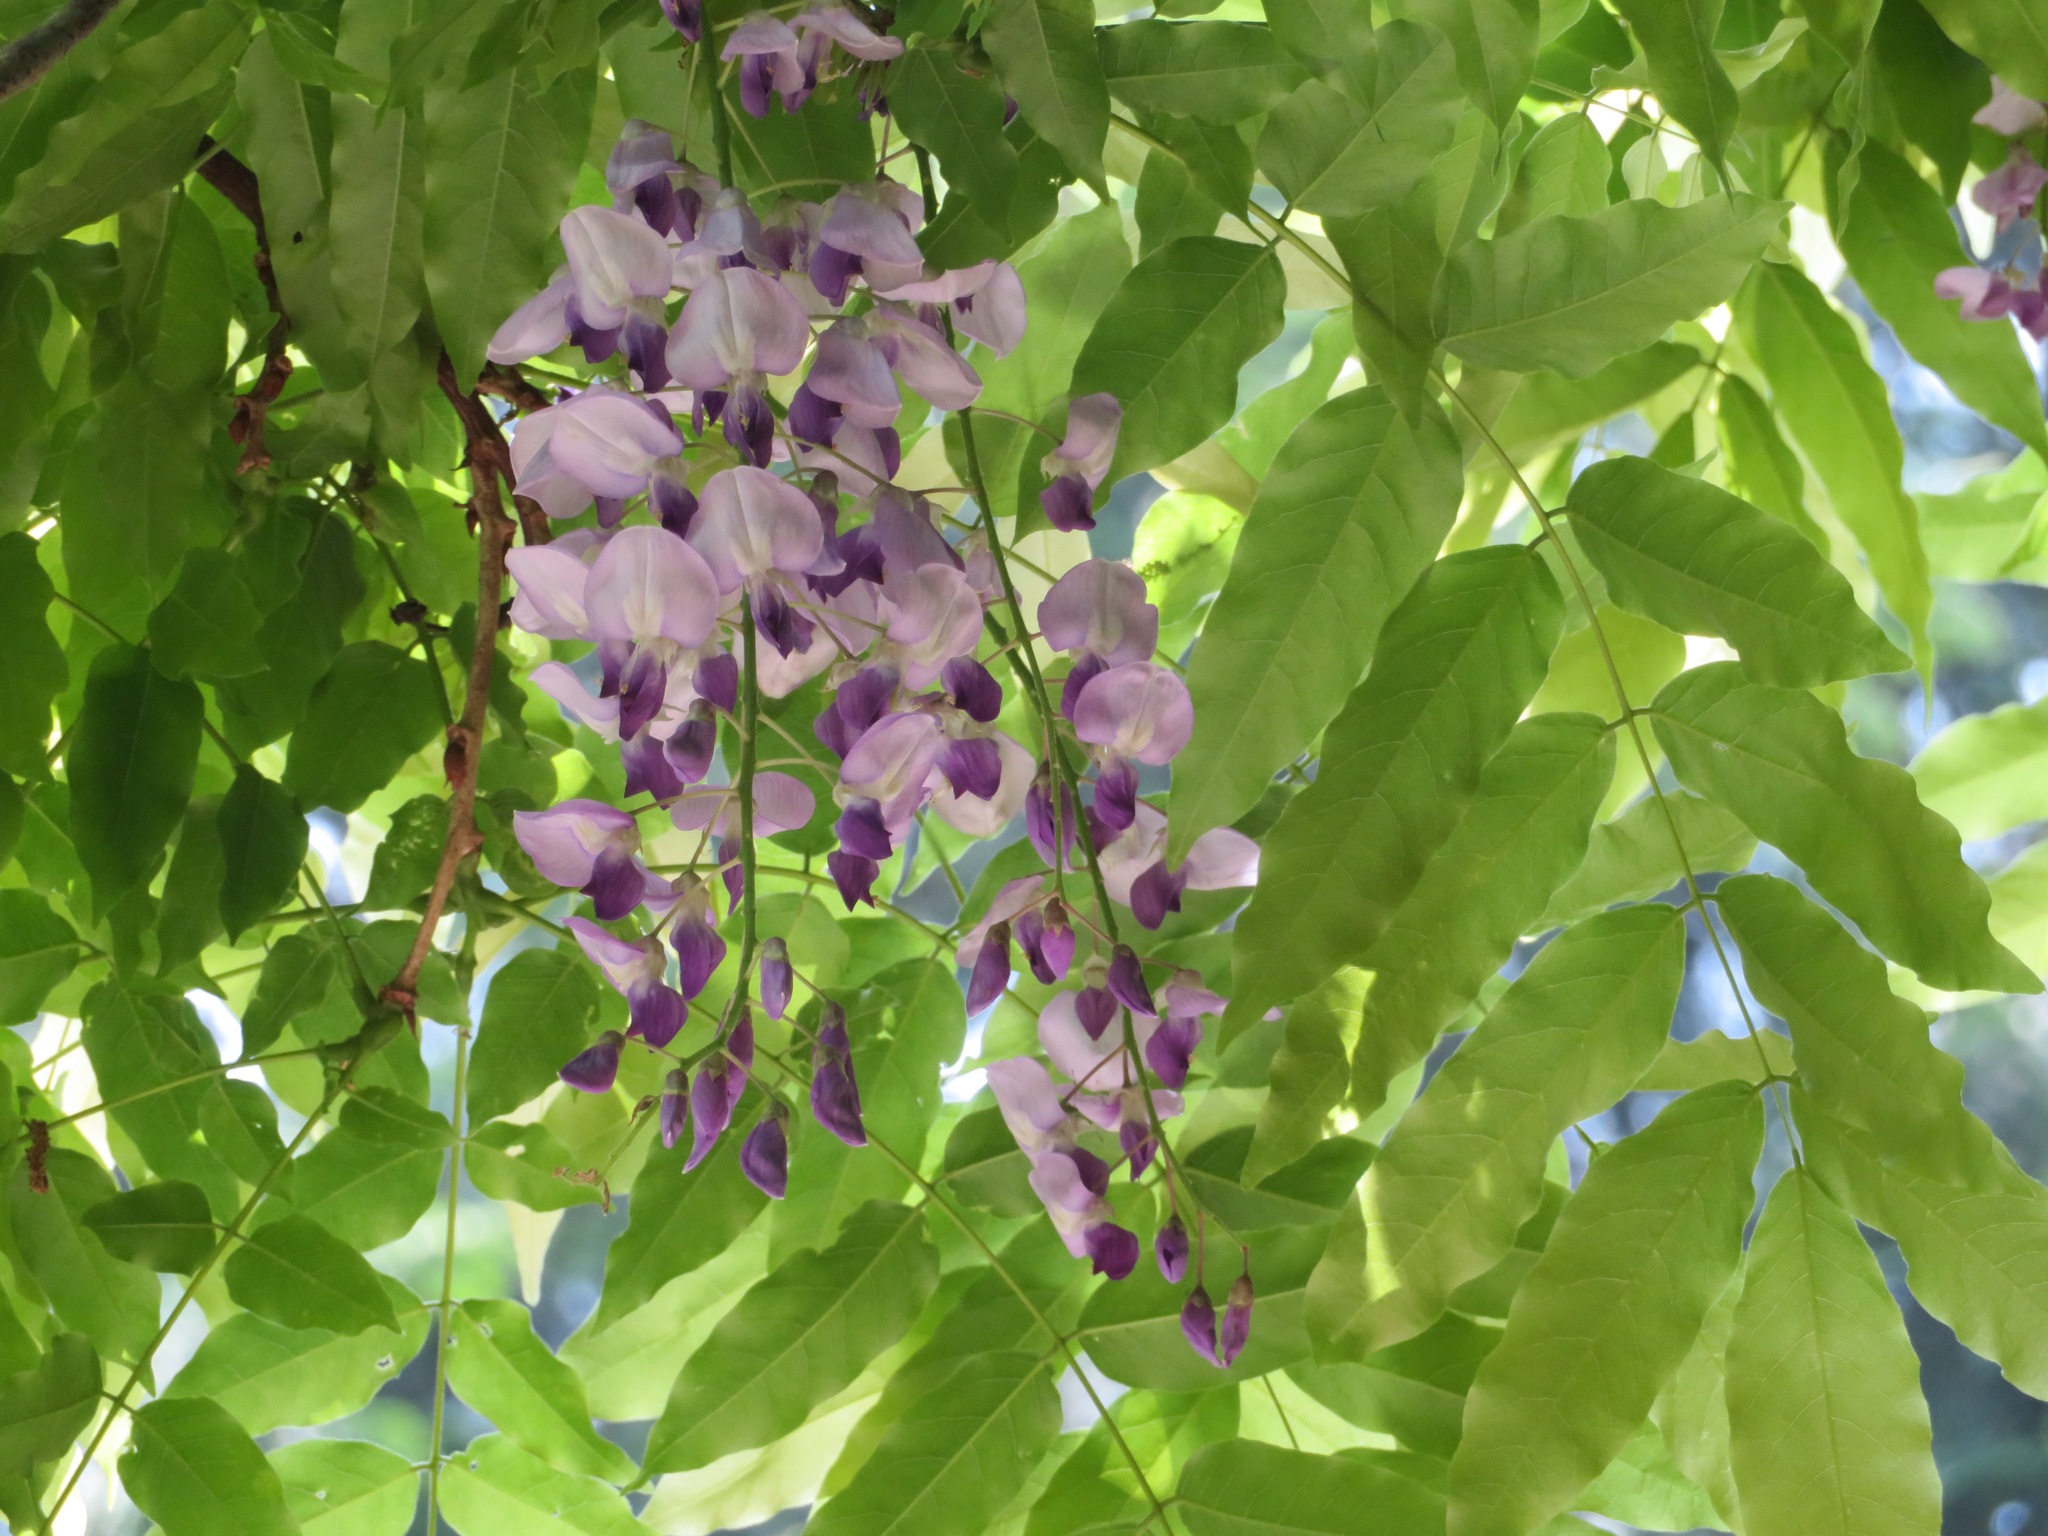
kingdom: Plantae
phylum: Tracheophyta
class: Magnoliopsida
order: Fabales
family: Fabaceae
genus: Wisteria
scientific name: Wisteria floribunda
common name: Japanese wisteria
